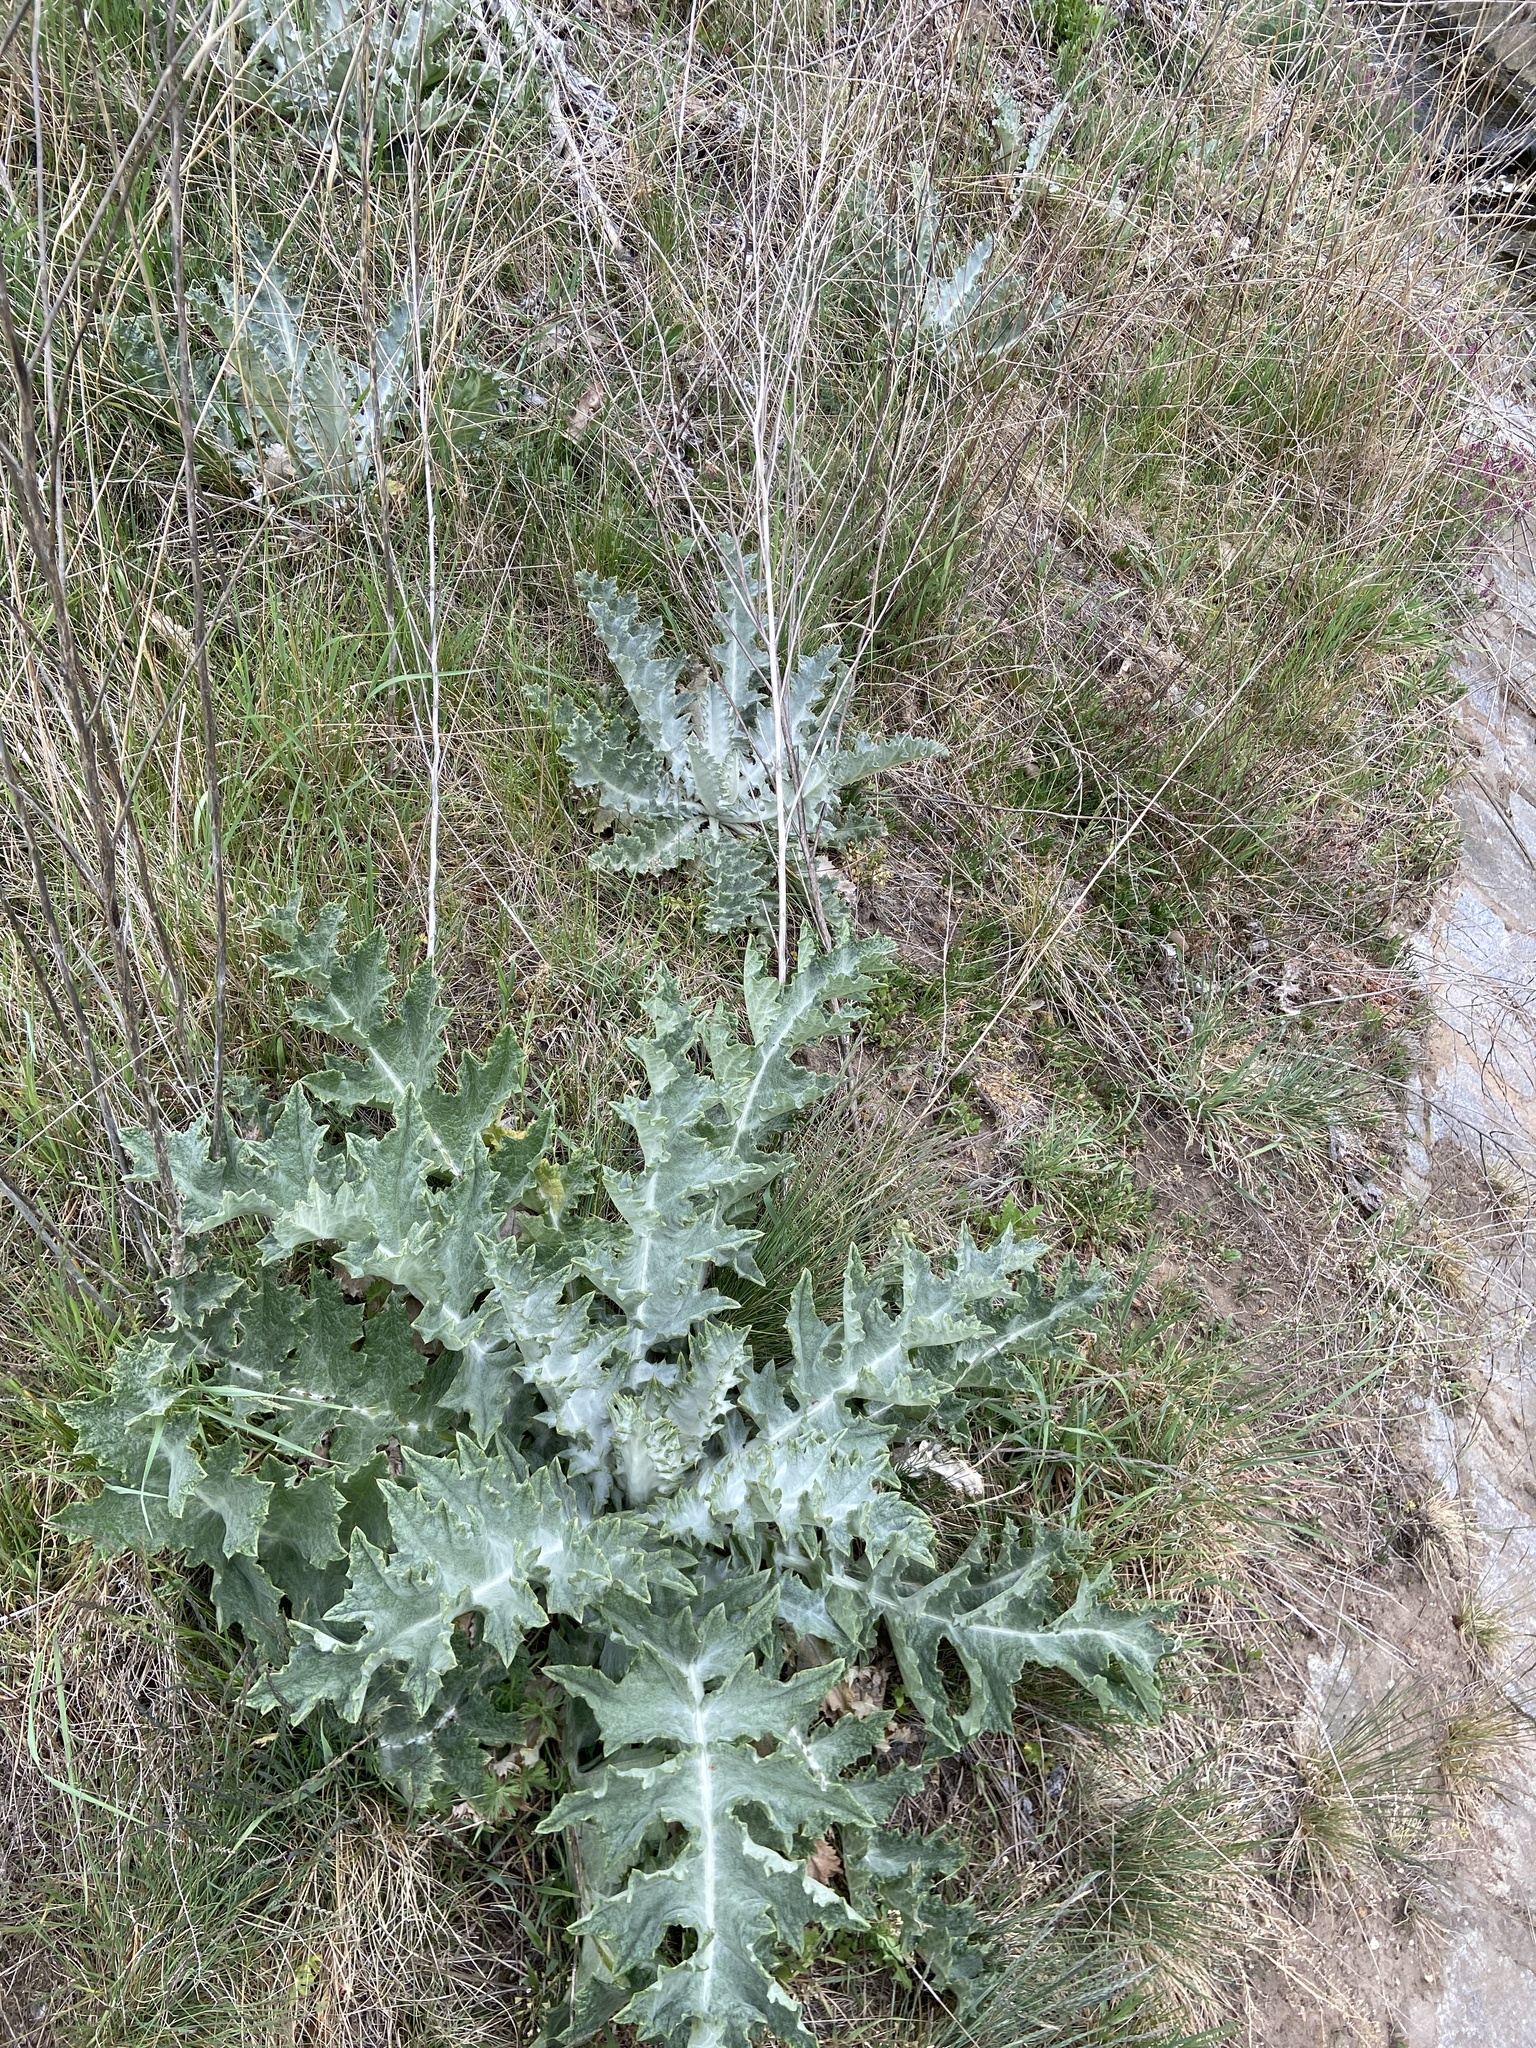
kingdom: Plantae
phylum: Tracheophyta
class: Magnoliopsida
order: Asterales
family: Asteraceae
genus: Onopordum
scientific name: Onopordum acanthium
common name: Scotch thistle
